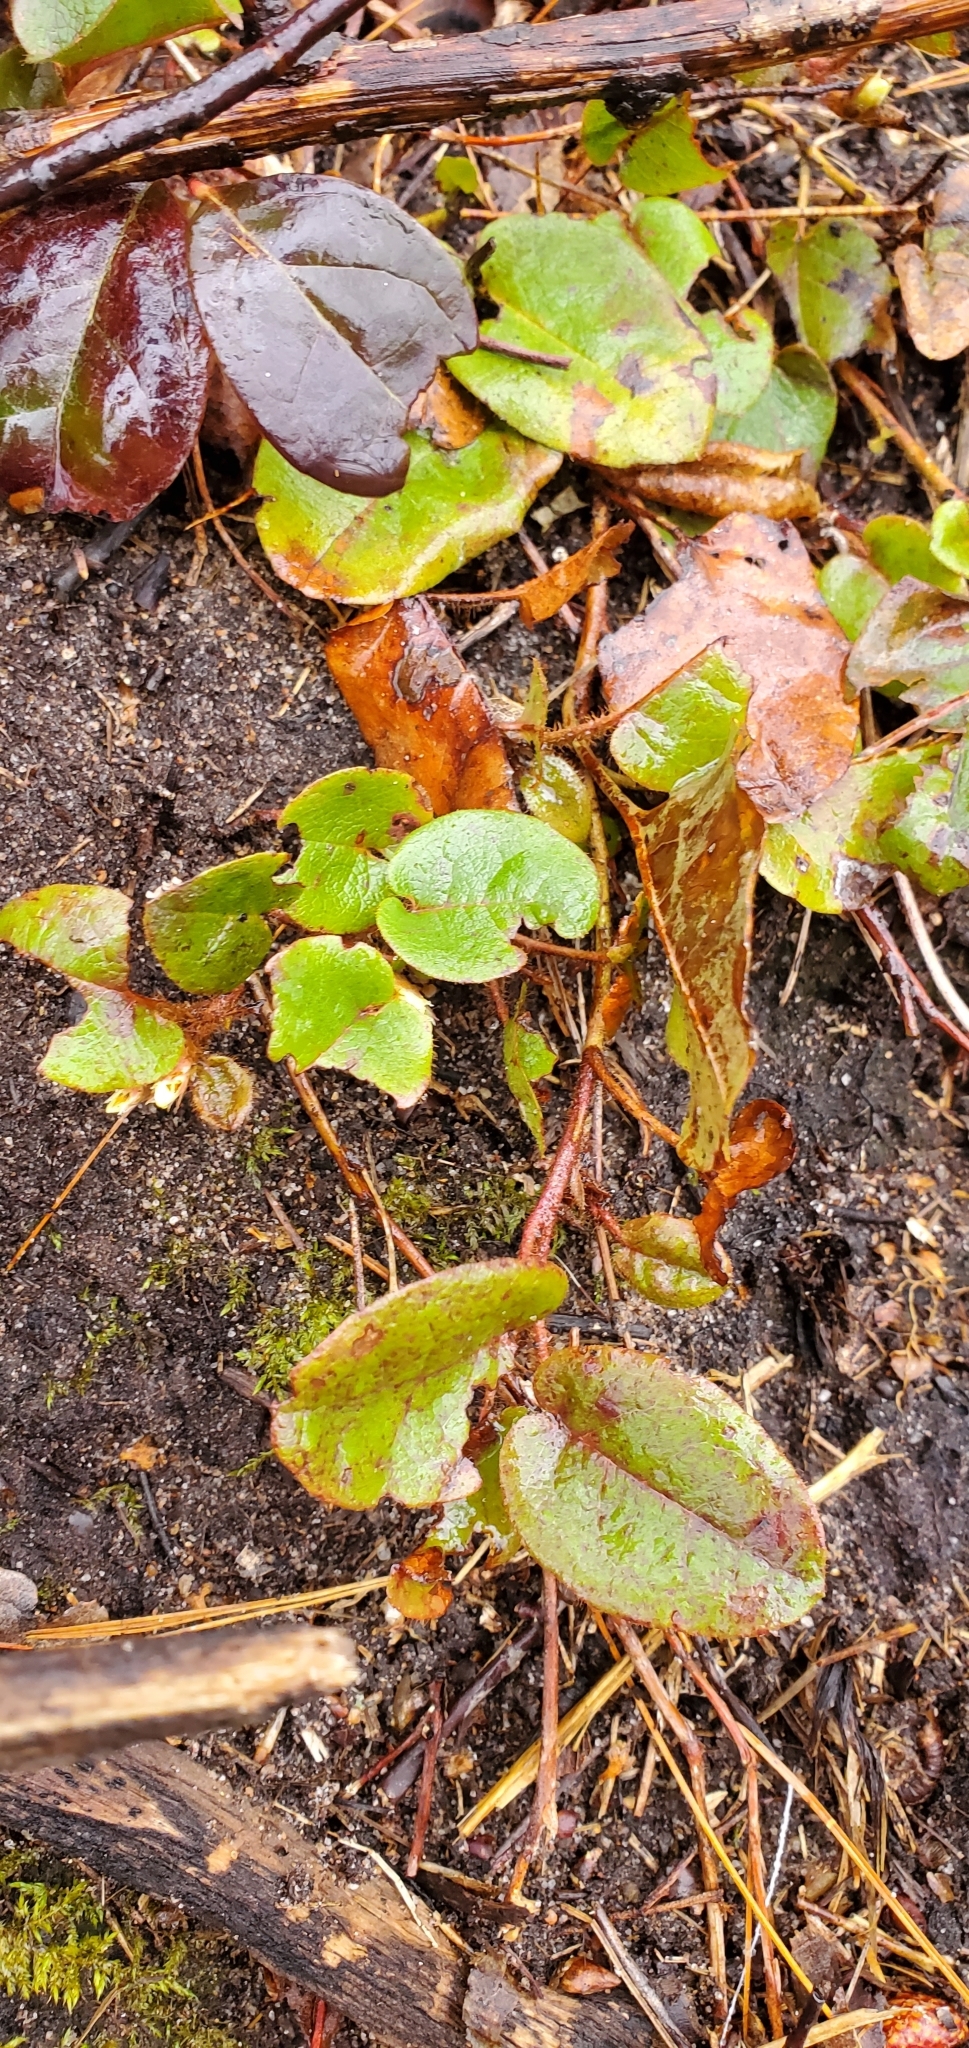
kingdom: Plantae
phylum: Tracheophyta
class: Magnoliopsida
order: Ericales
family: Ericaceae
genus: Epigaea
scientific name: Epigaea repens
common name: Gravelroot
